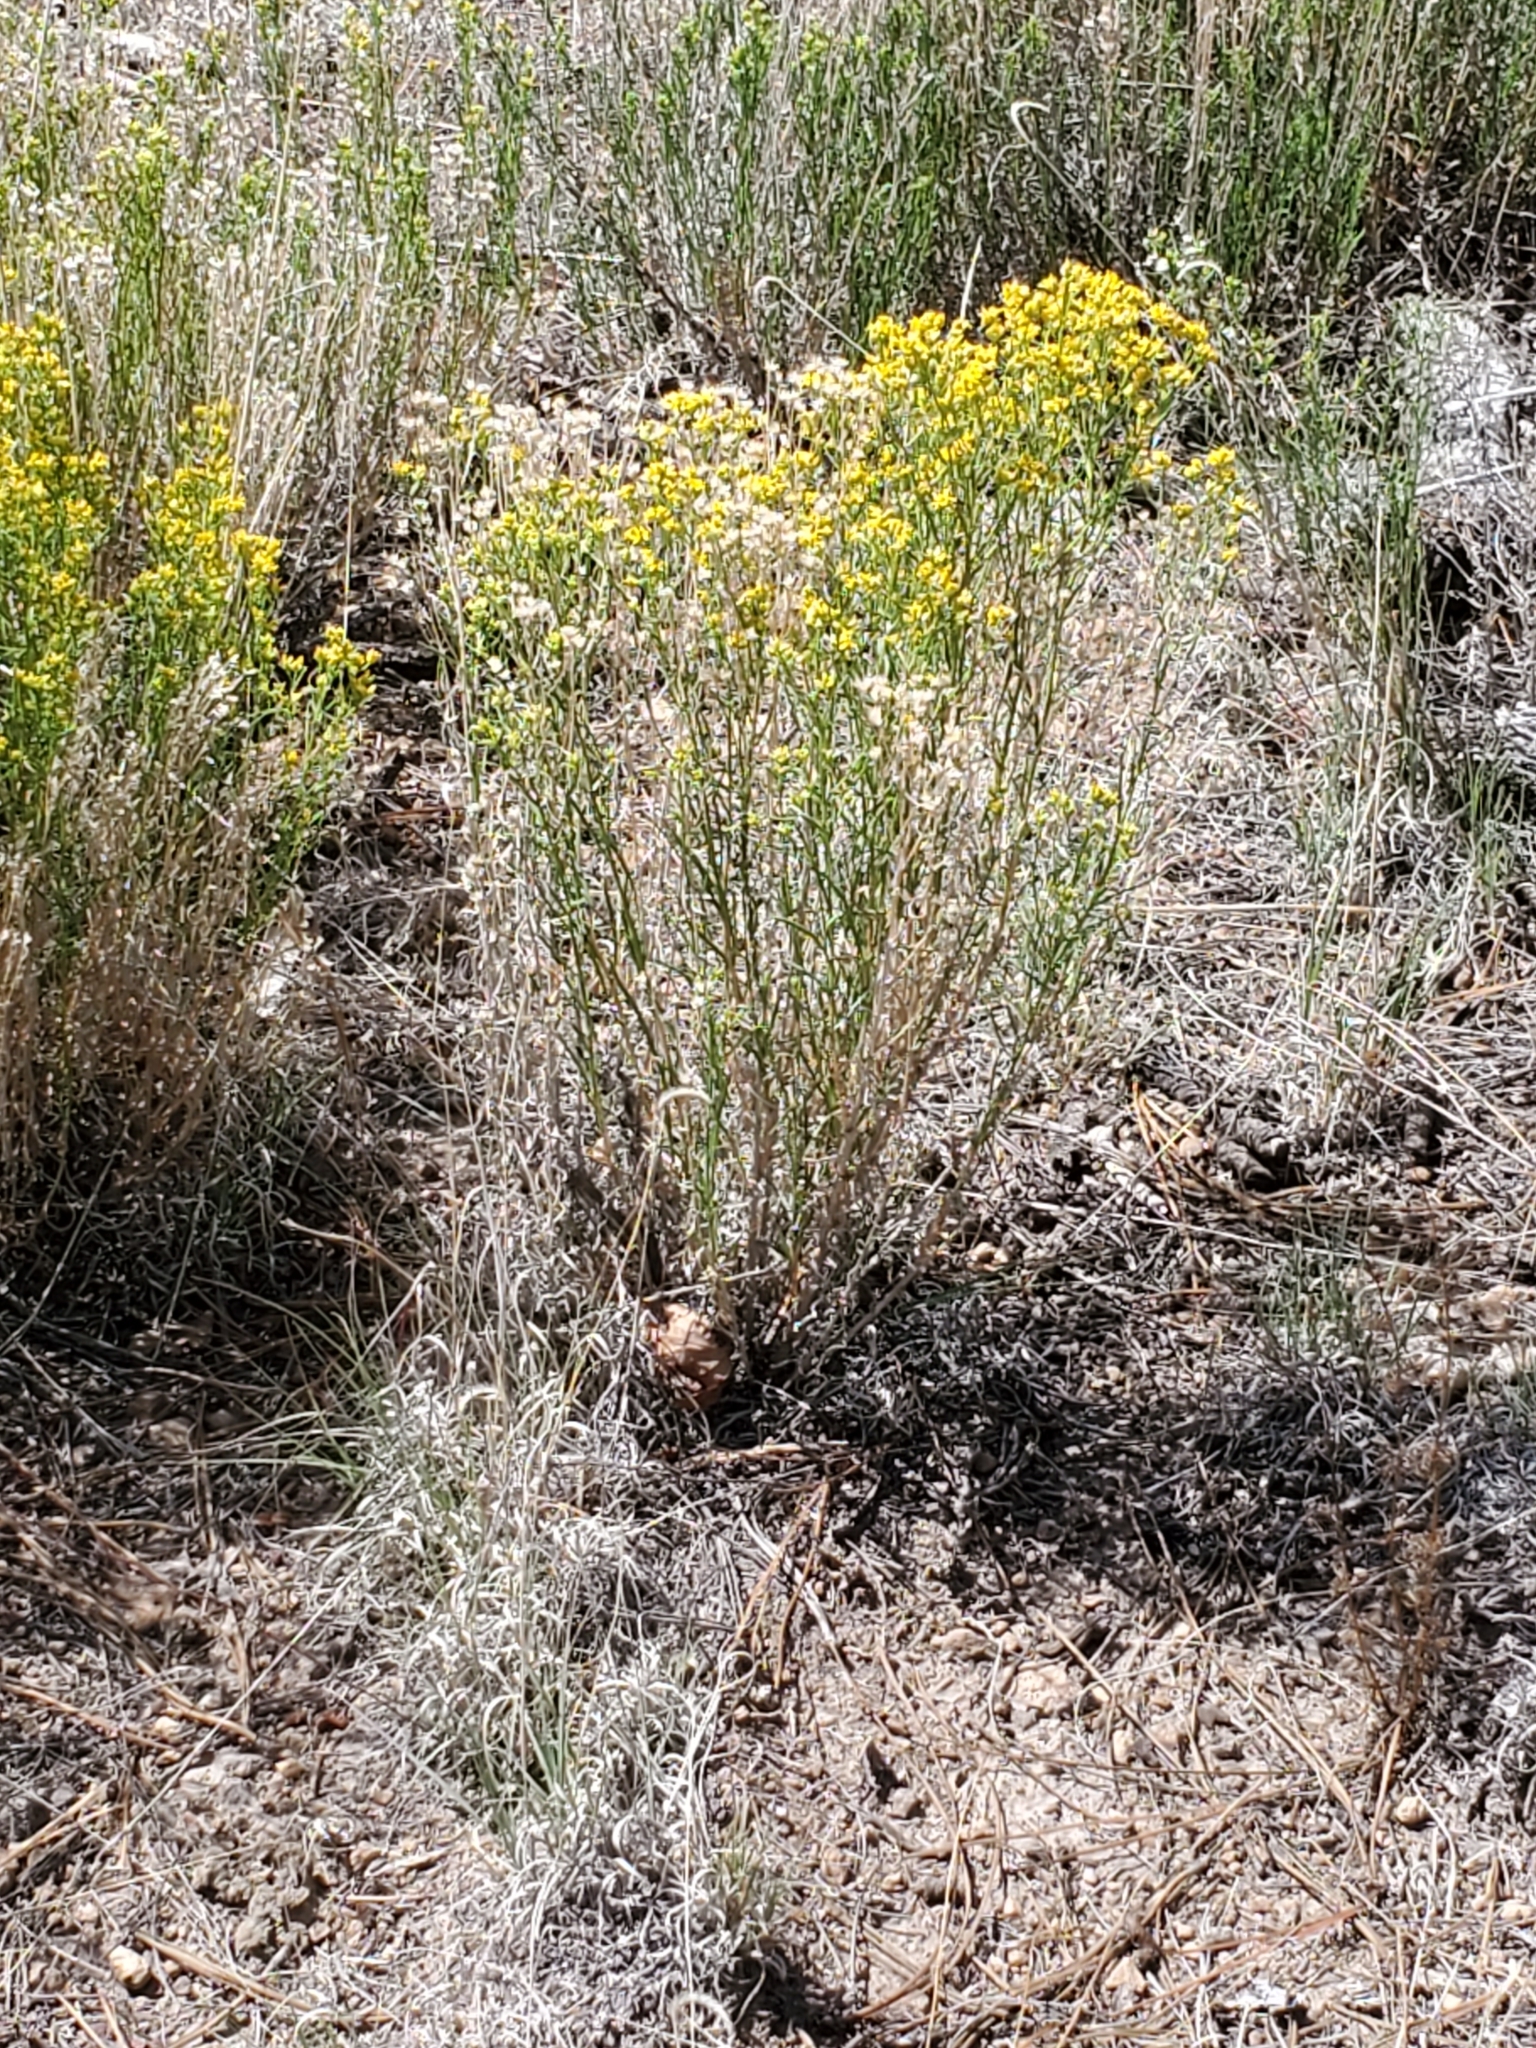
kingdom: Plantae
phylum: Tracheophyta
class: Magnoliopsida
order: Asterales
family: Asteraceae
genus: Gutierrezia
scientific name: Gutierrezia sarothrae
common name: Broom snakeweed
